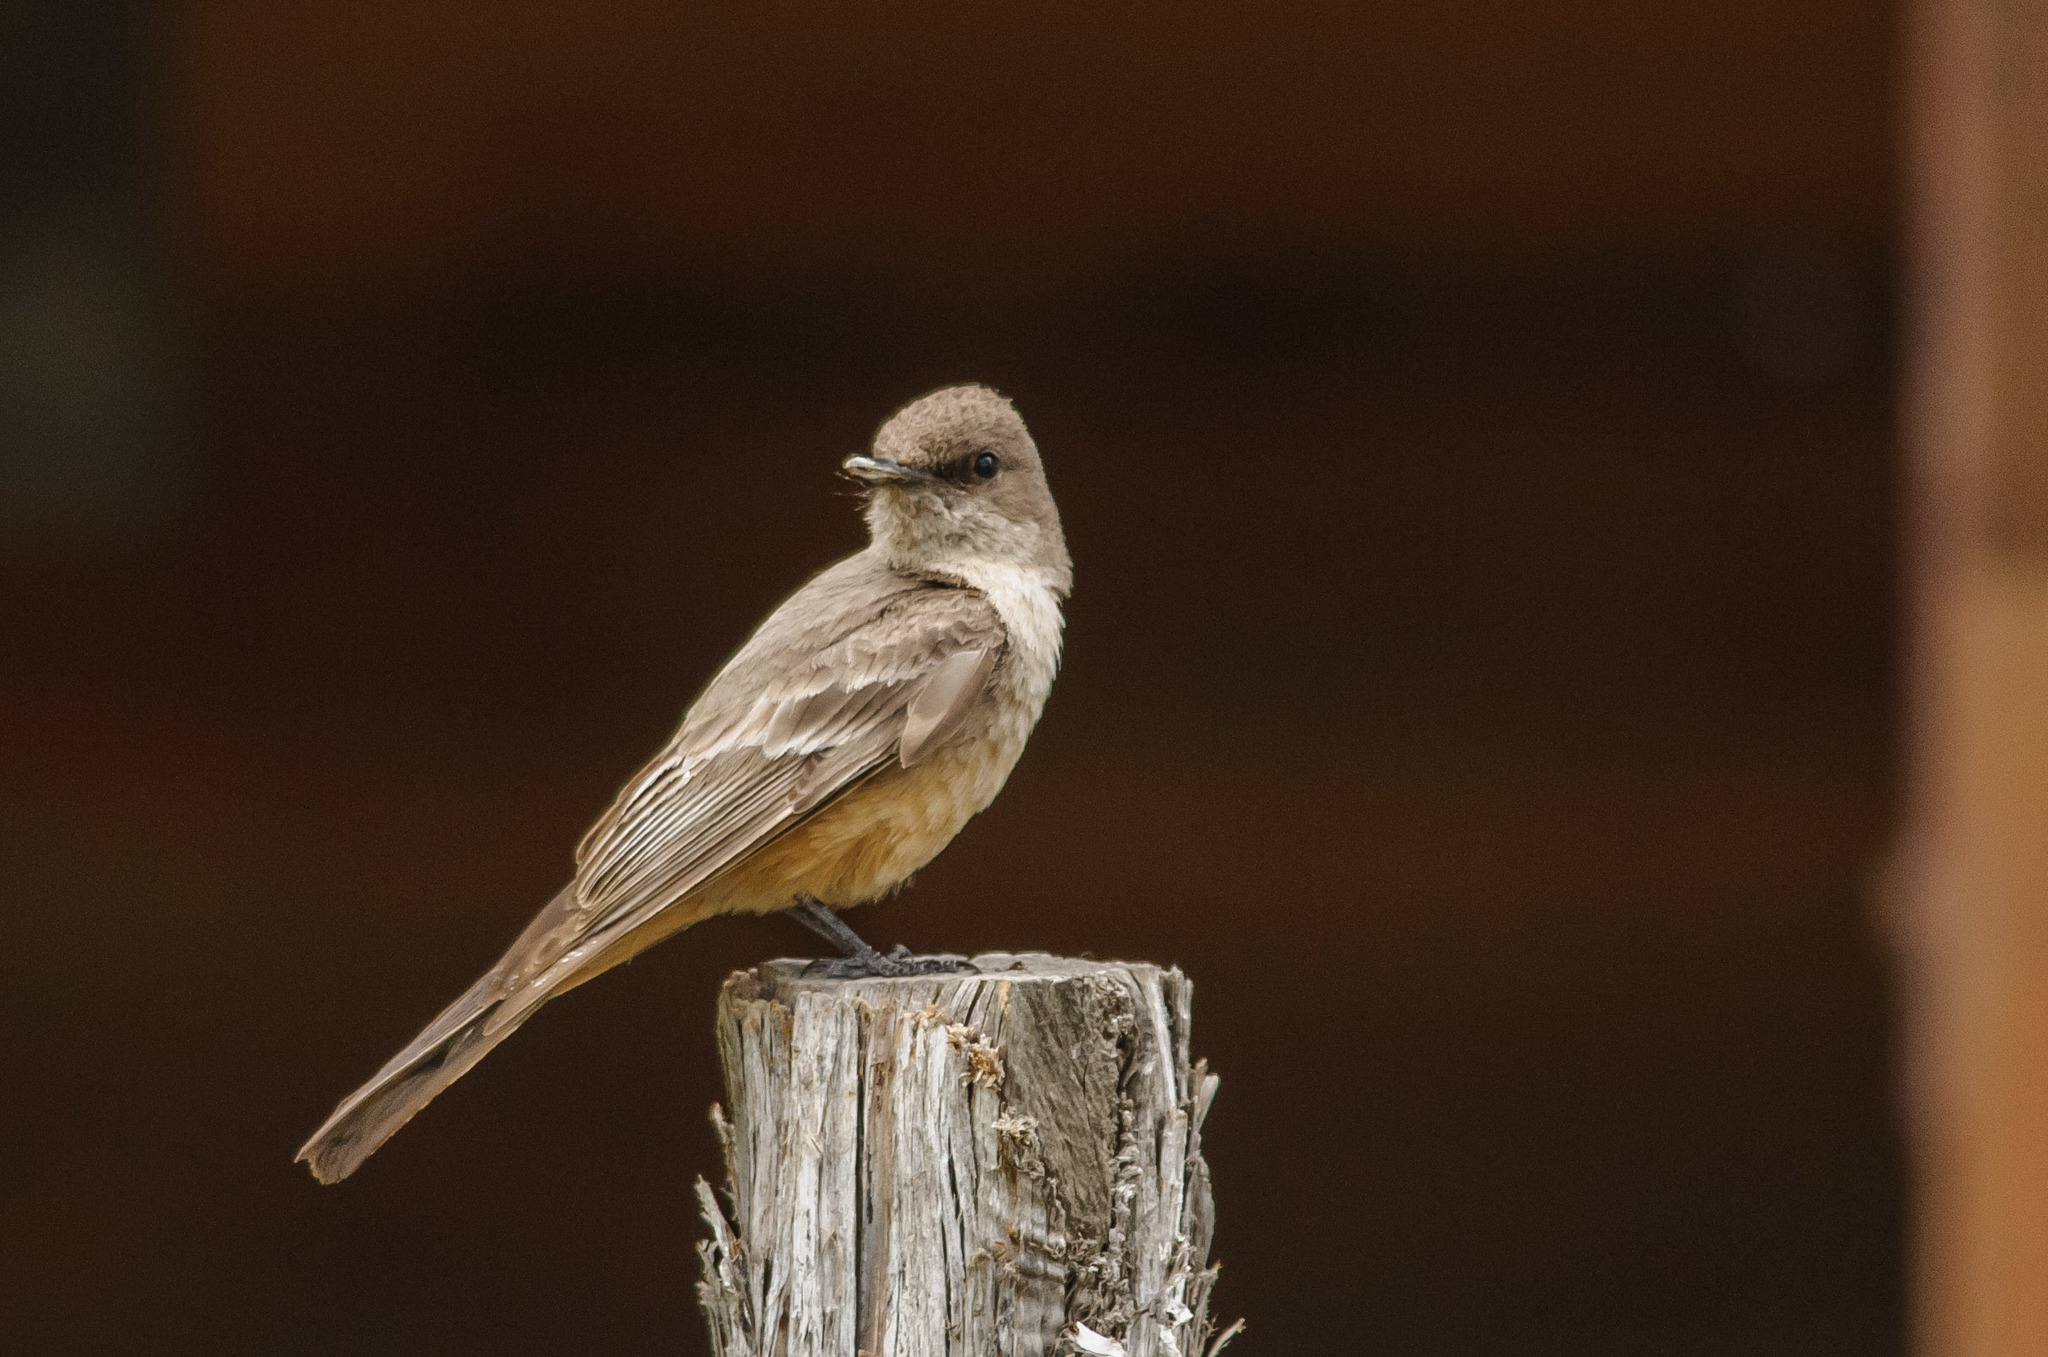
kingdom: Animalia
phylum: Chordata
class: Aves
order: Passeriformes
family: Tyrannidae
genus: Sayornis
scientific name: Sayornis saya
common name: Say's phoebe
